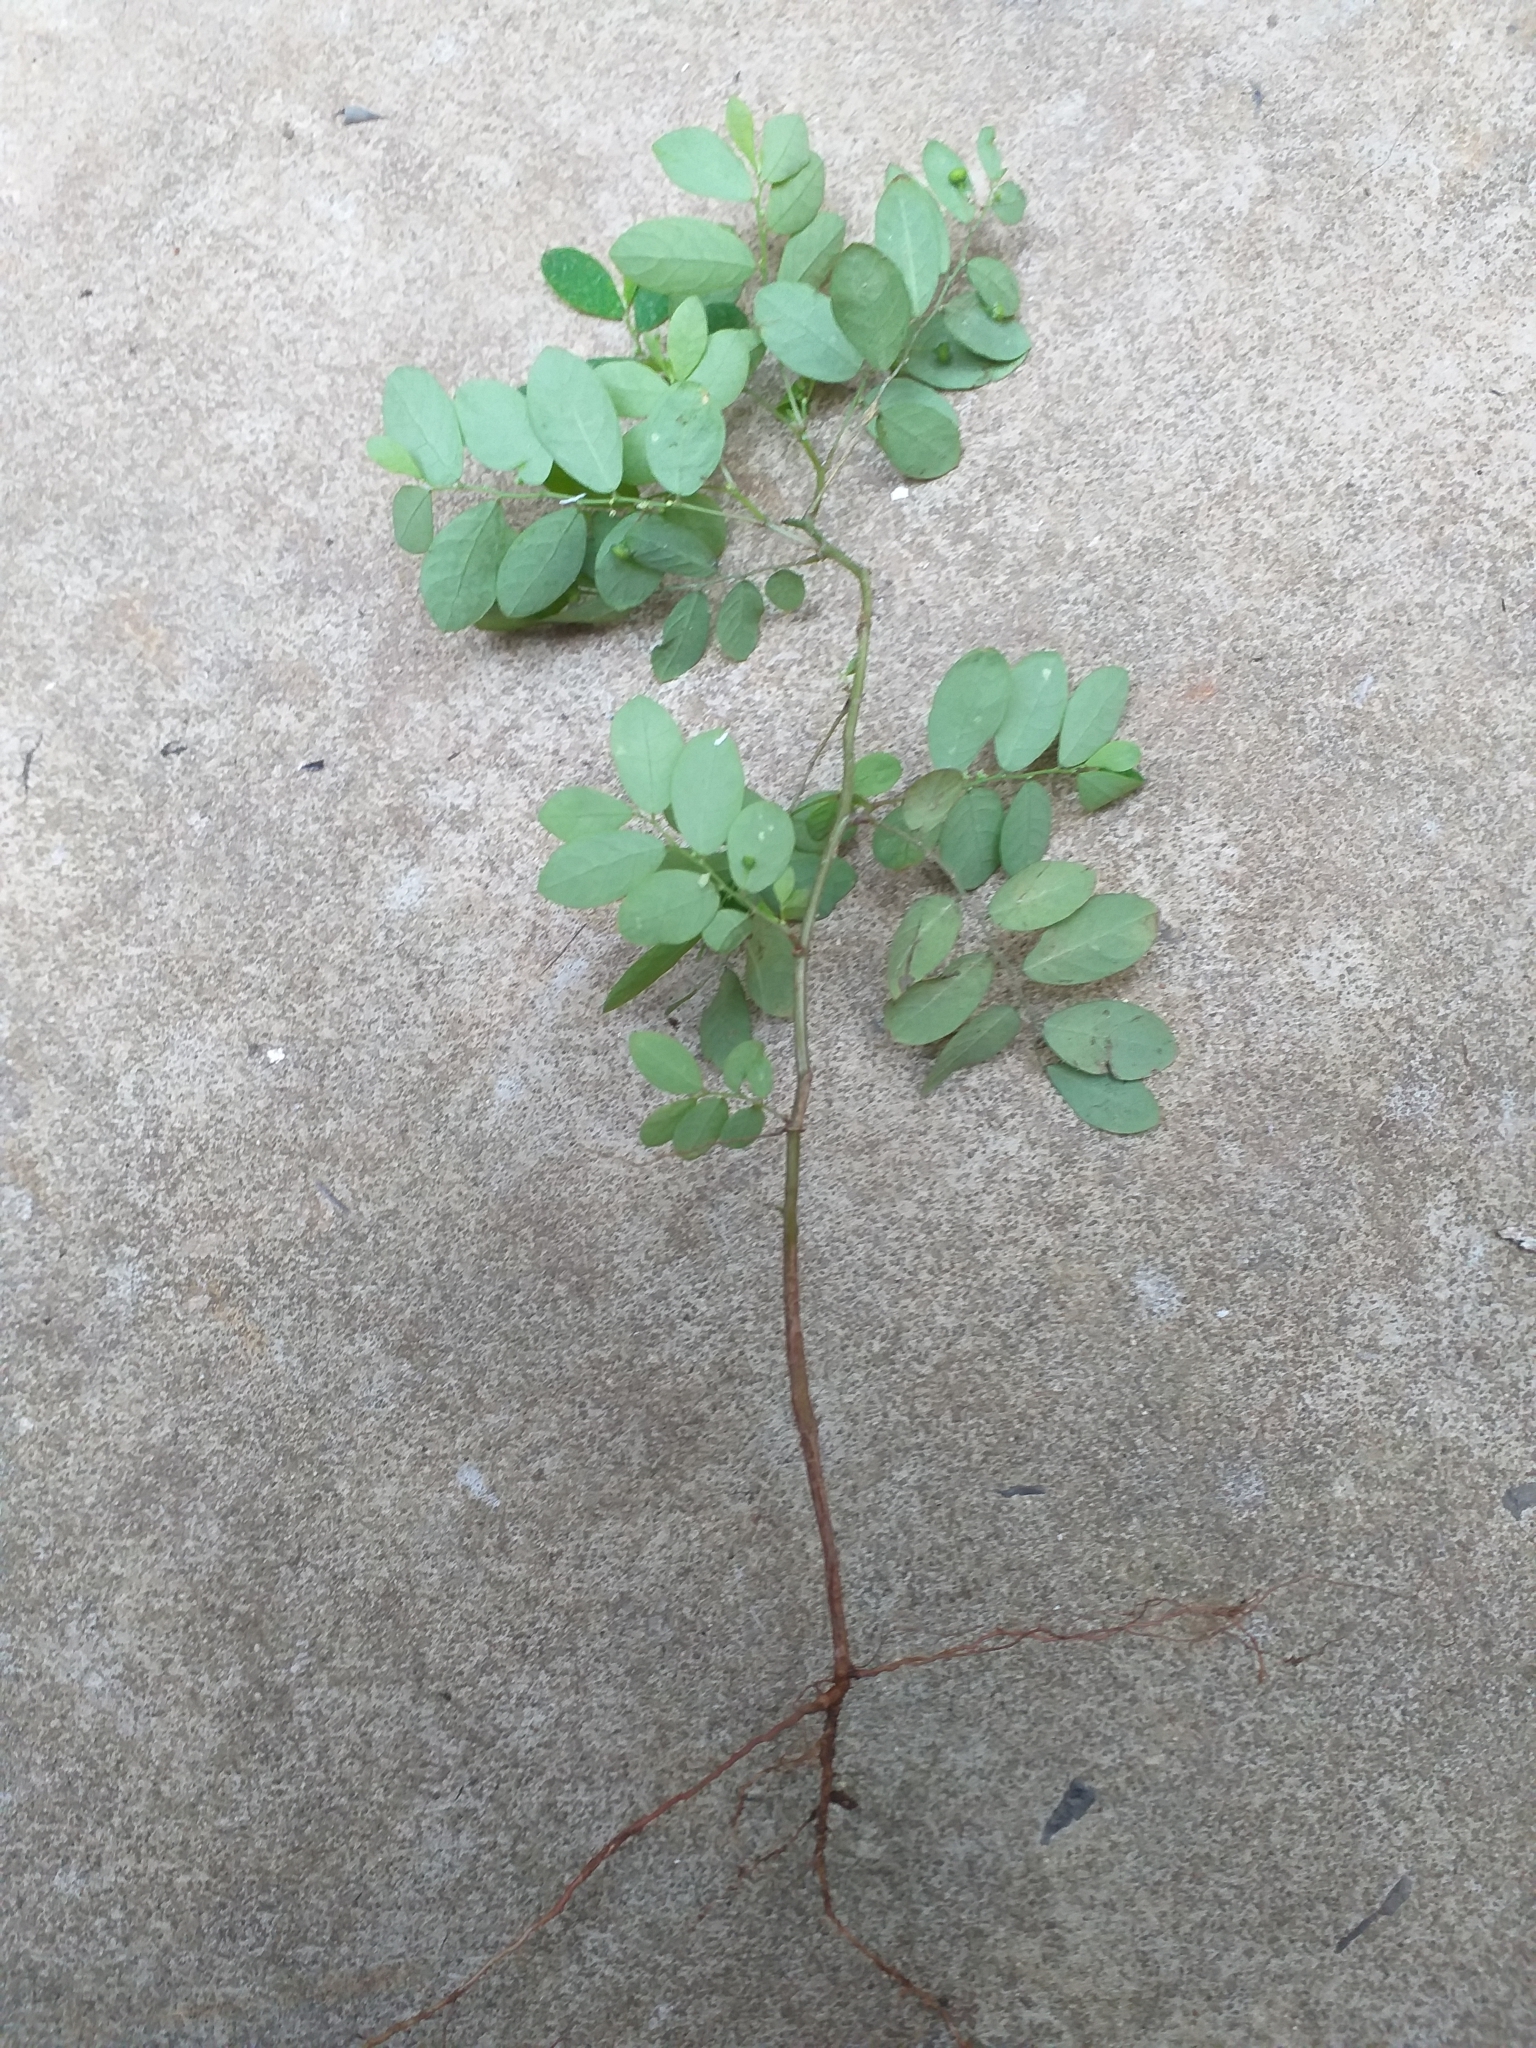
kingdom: Plantae
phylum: Tracheophyta
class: Magnoliopsida
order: Malpighiales
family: Phyllanthaceae
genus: Phyllanthus
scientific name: Phyllanthus tenellus
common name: Mascarene island leaf-flower
